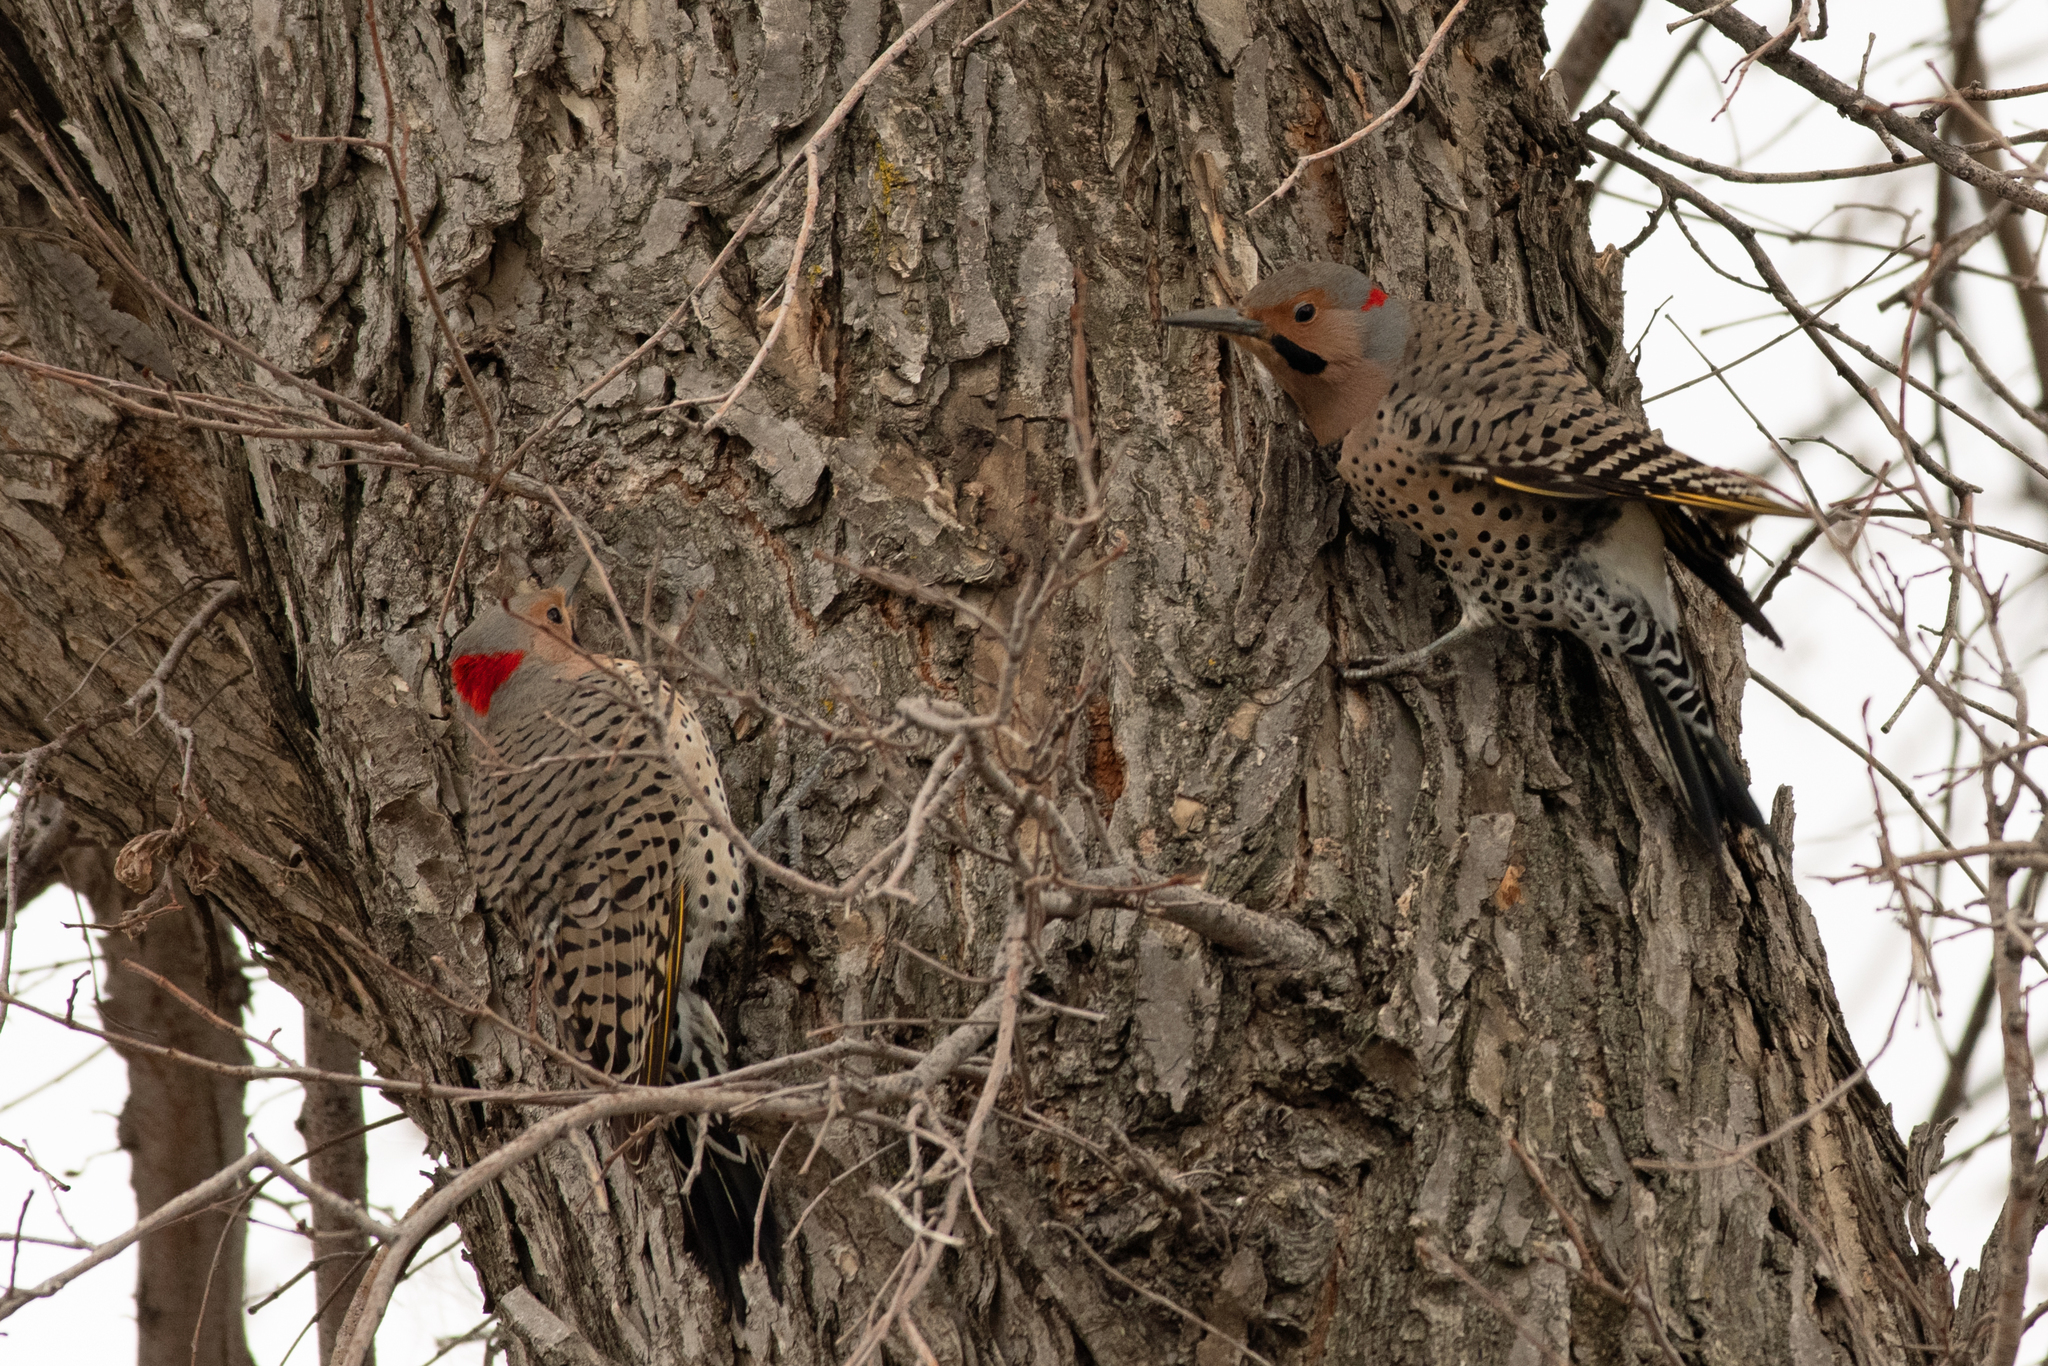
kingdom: Animalia
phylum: Chordata
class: Aves
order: Piciformes
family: Picidae
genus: Colaptes
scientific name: Colaptes auratus
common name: Northern flicker
